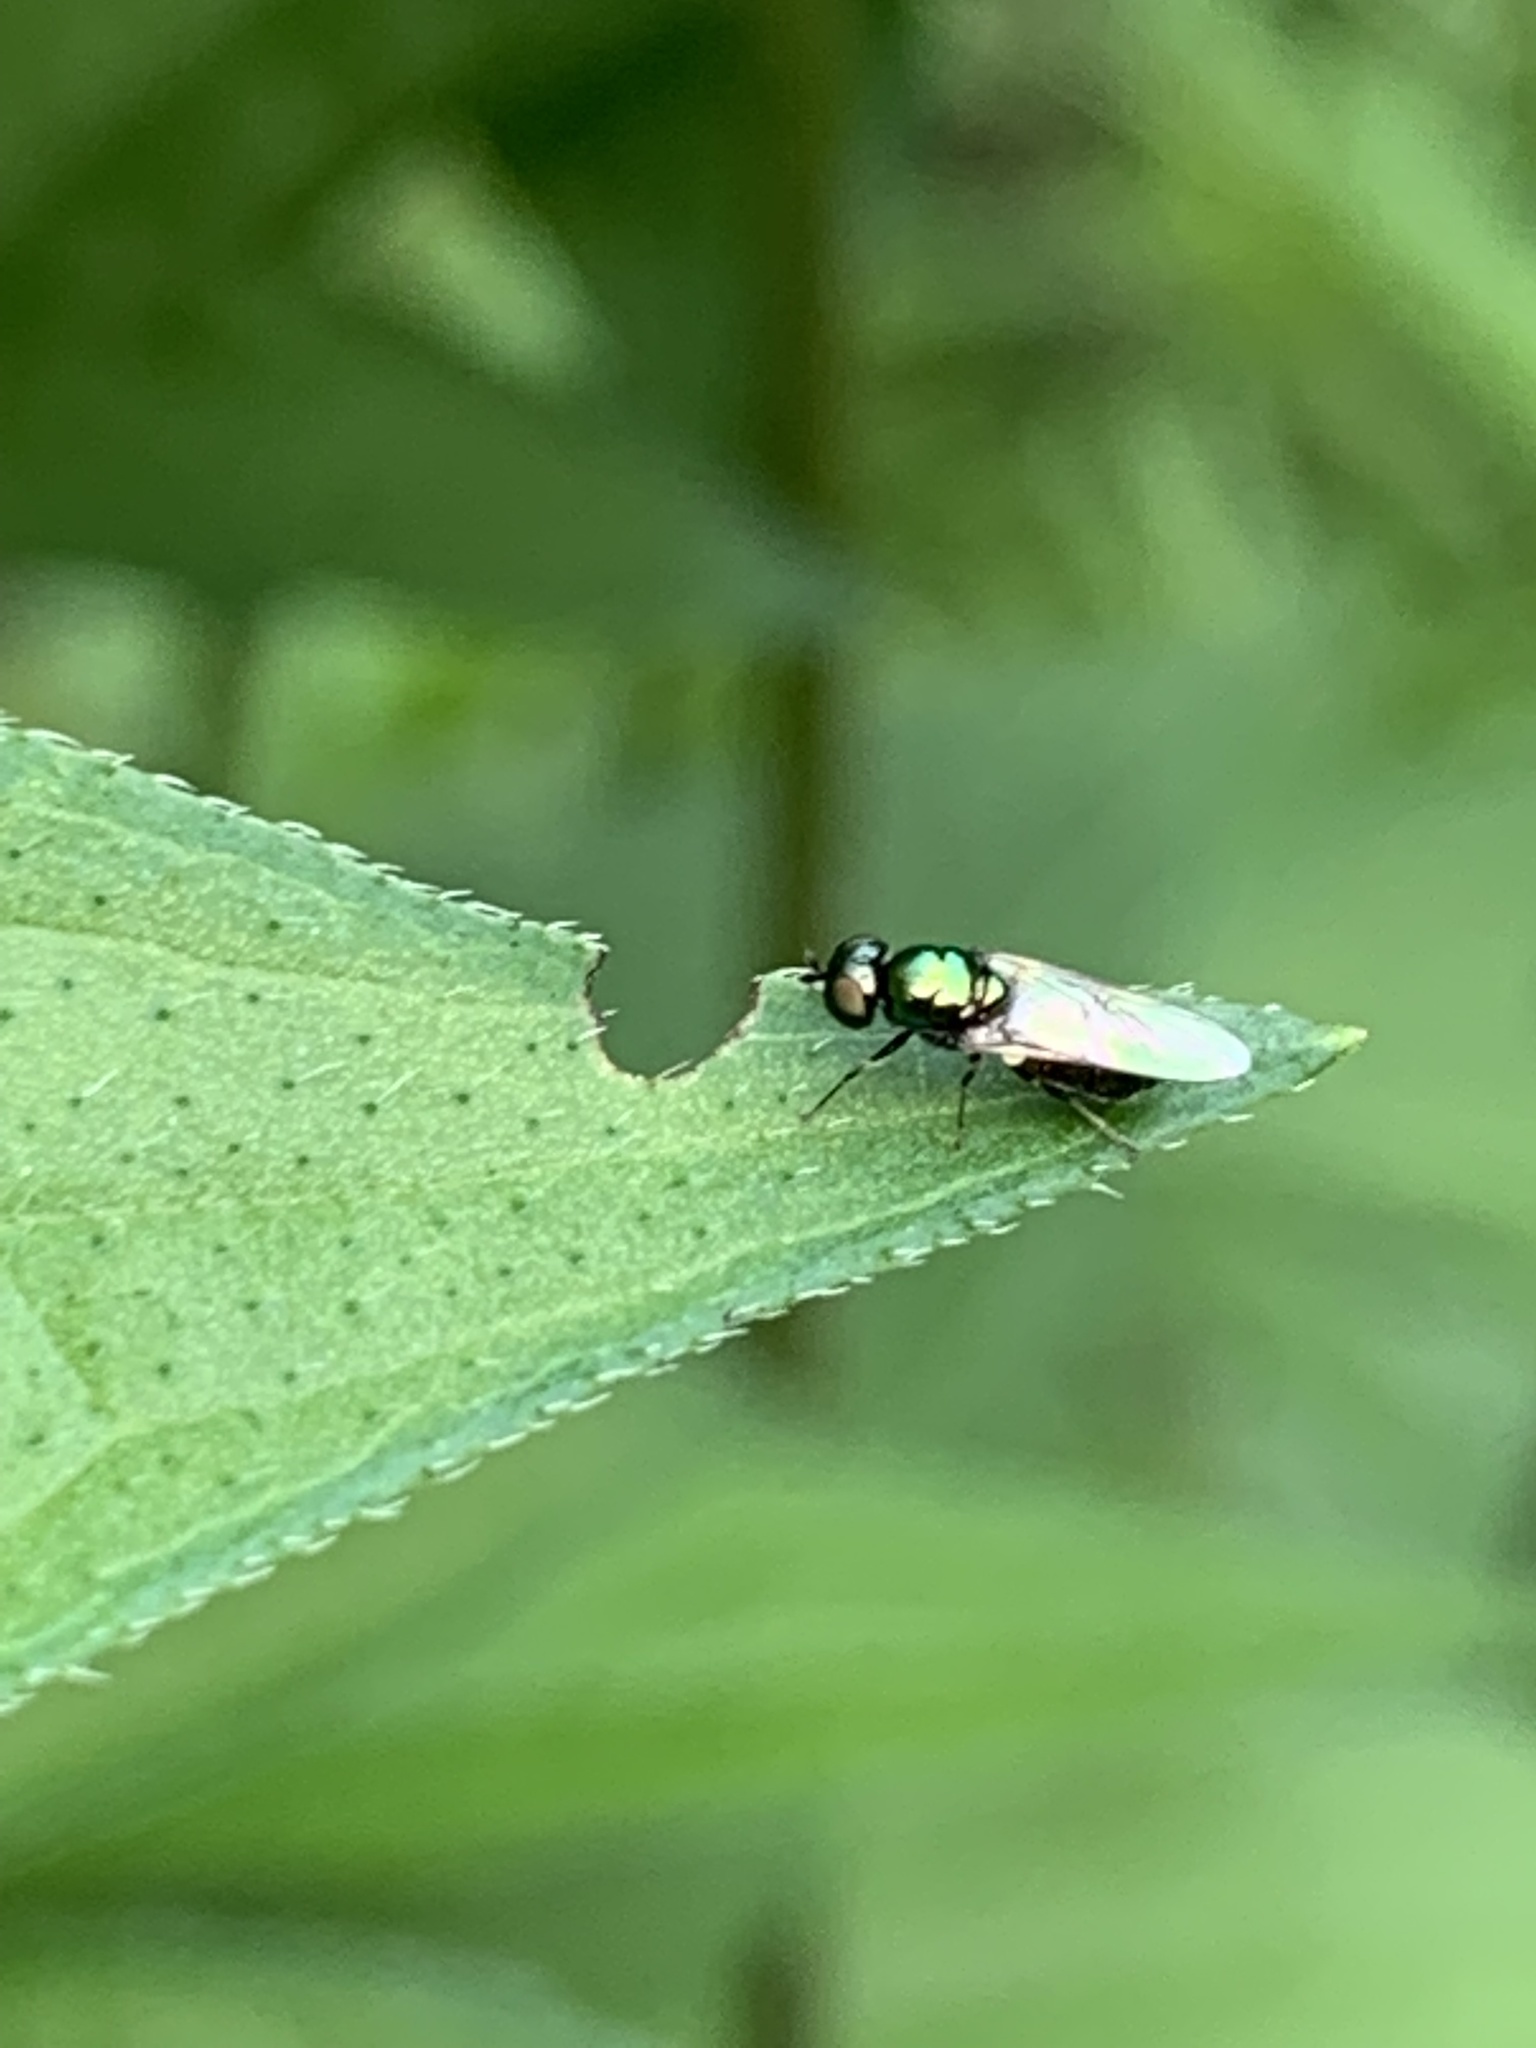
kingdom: Animalia
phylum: Arthropoda
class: Insecta
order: Diptera
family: Stratiomyidae
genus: Microchrysa
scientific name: Microchrysa polita
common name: Black-horned gem
